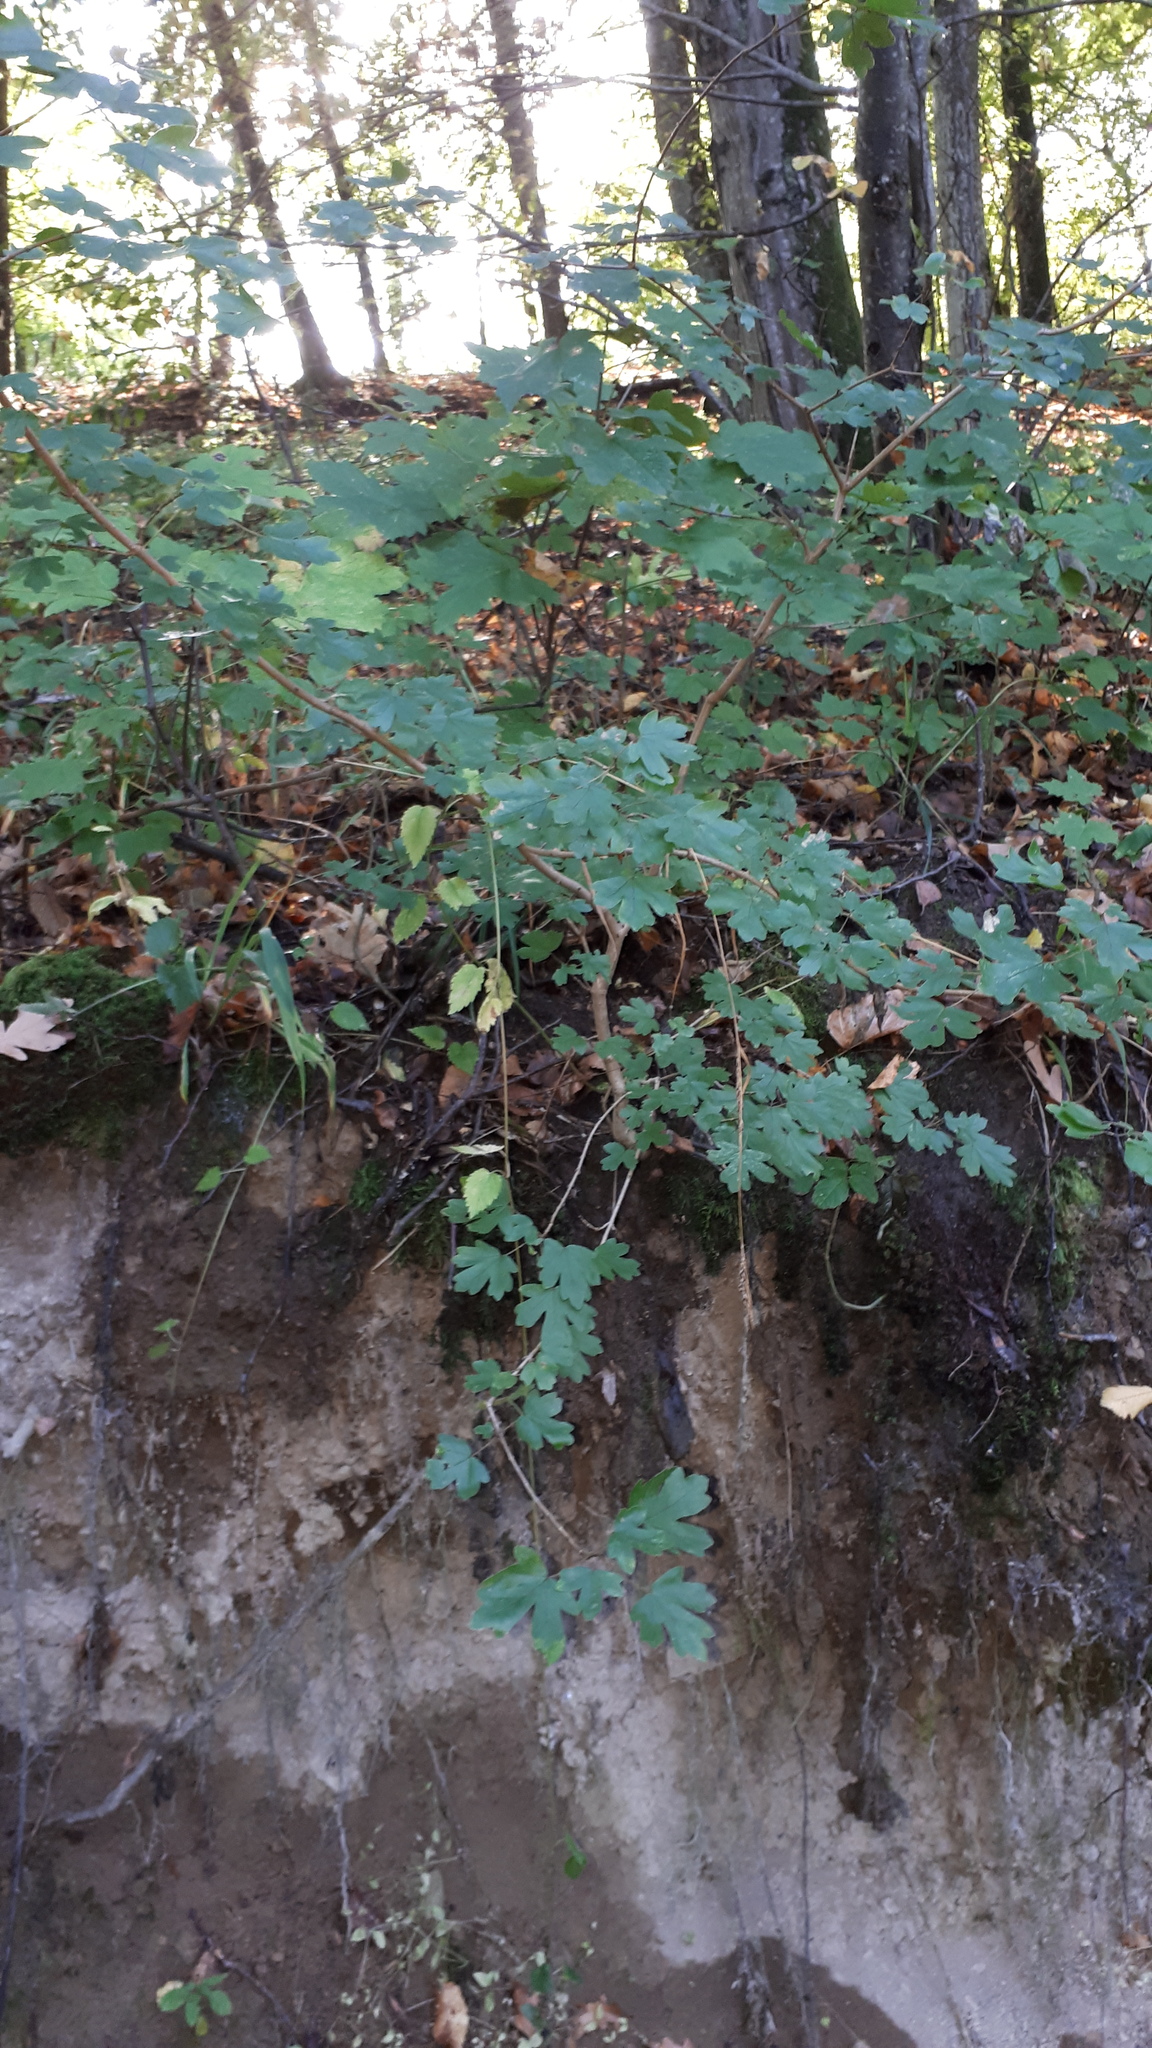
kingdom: Plantae
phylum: Tracheophyta
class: Magnoliopsida
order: Sapindales
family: Sapindaceae
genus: Acer
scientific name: Acer campestre
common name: Field maple
